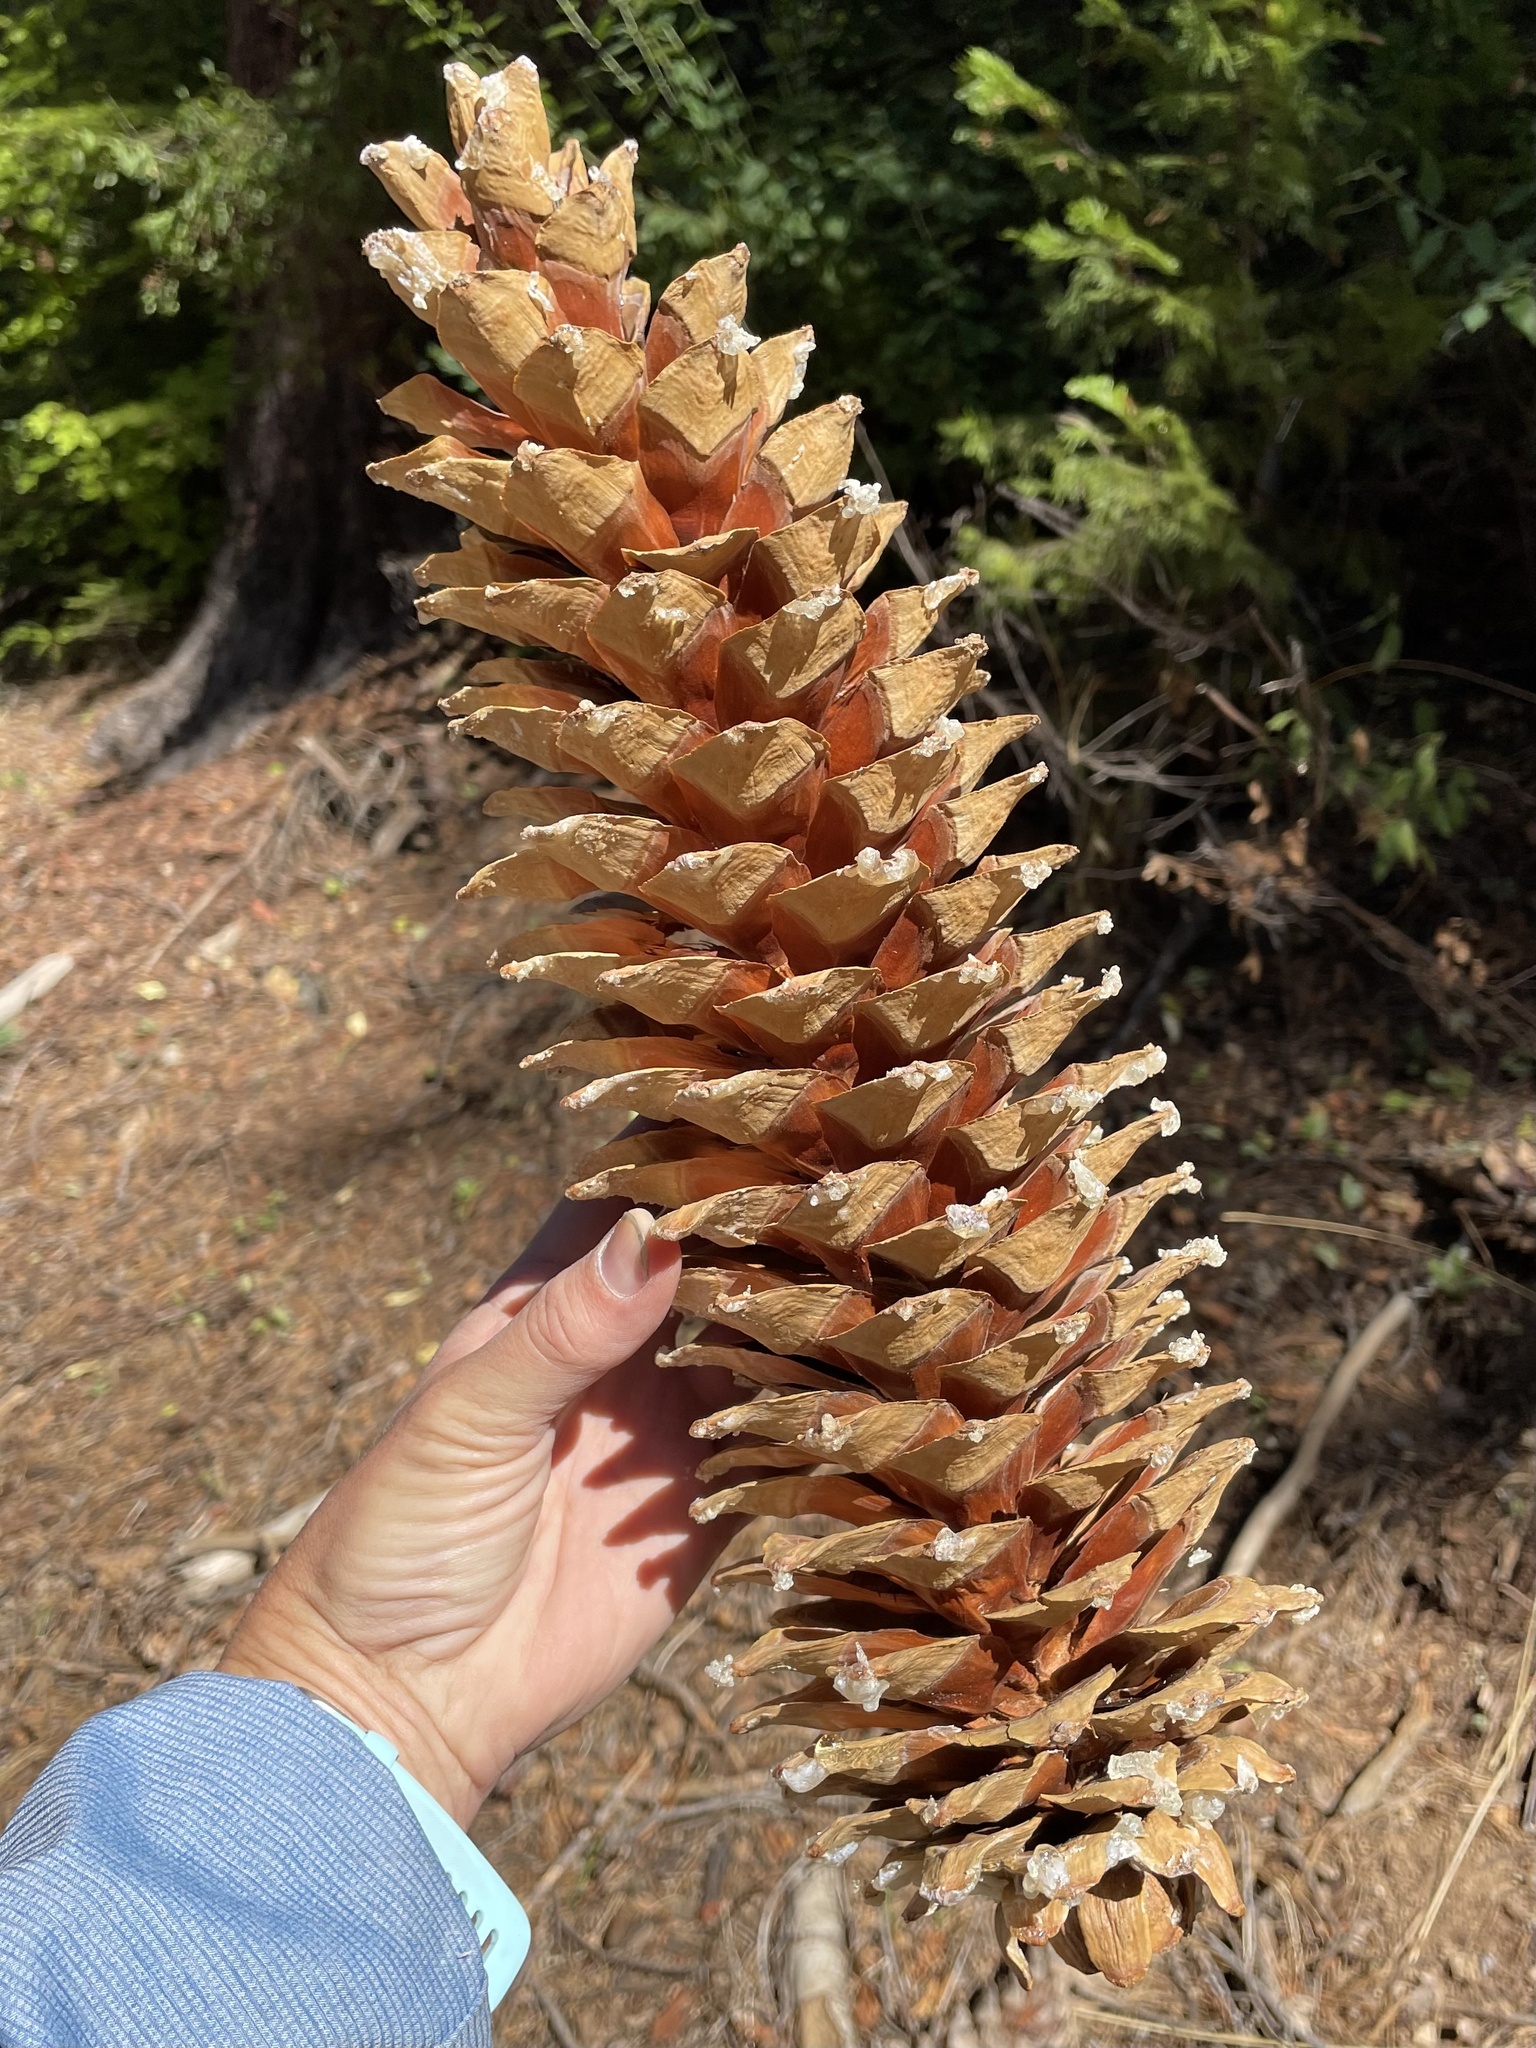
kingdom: Plantae
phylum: Tracheophyta
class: Pinopsida
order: Pinales
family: Pinaceae
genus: Pinus
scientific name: Pinus lambertiana
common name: Sugar pine
